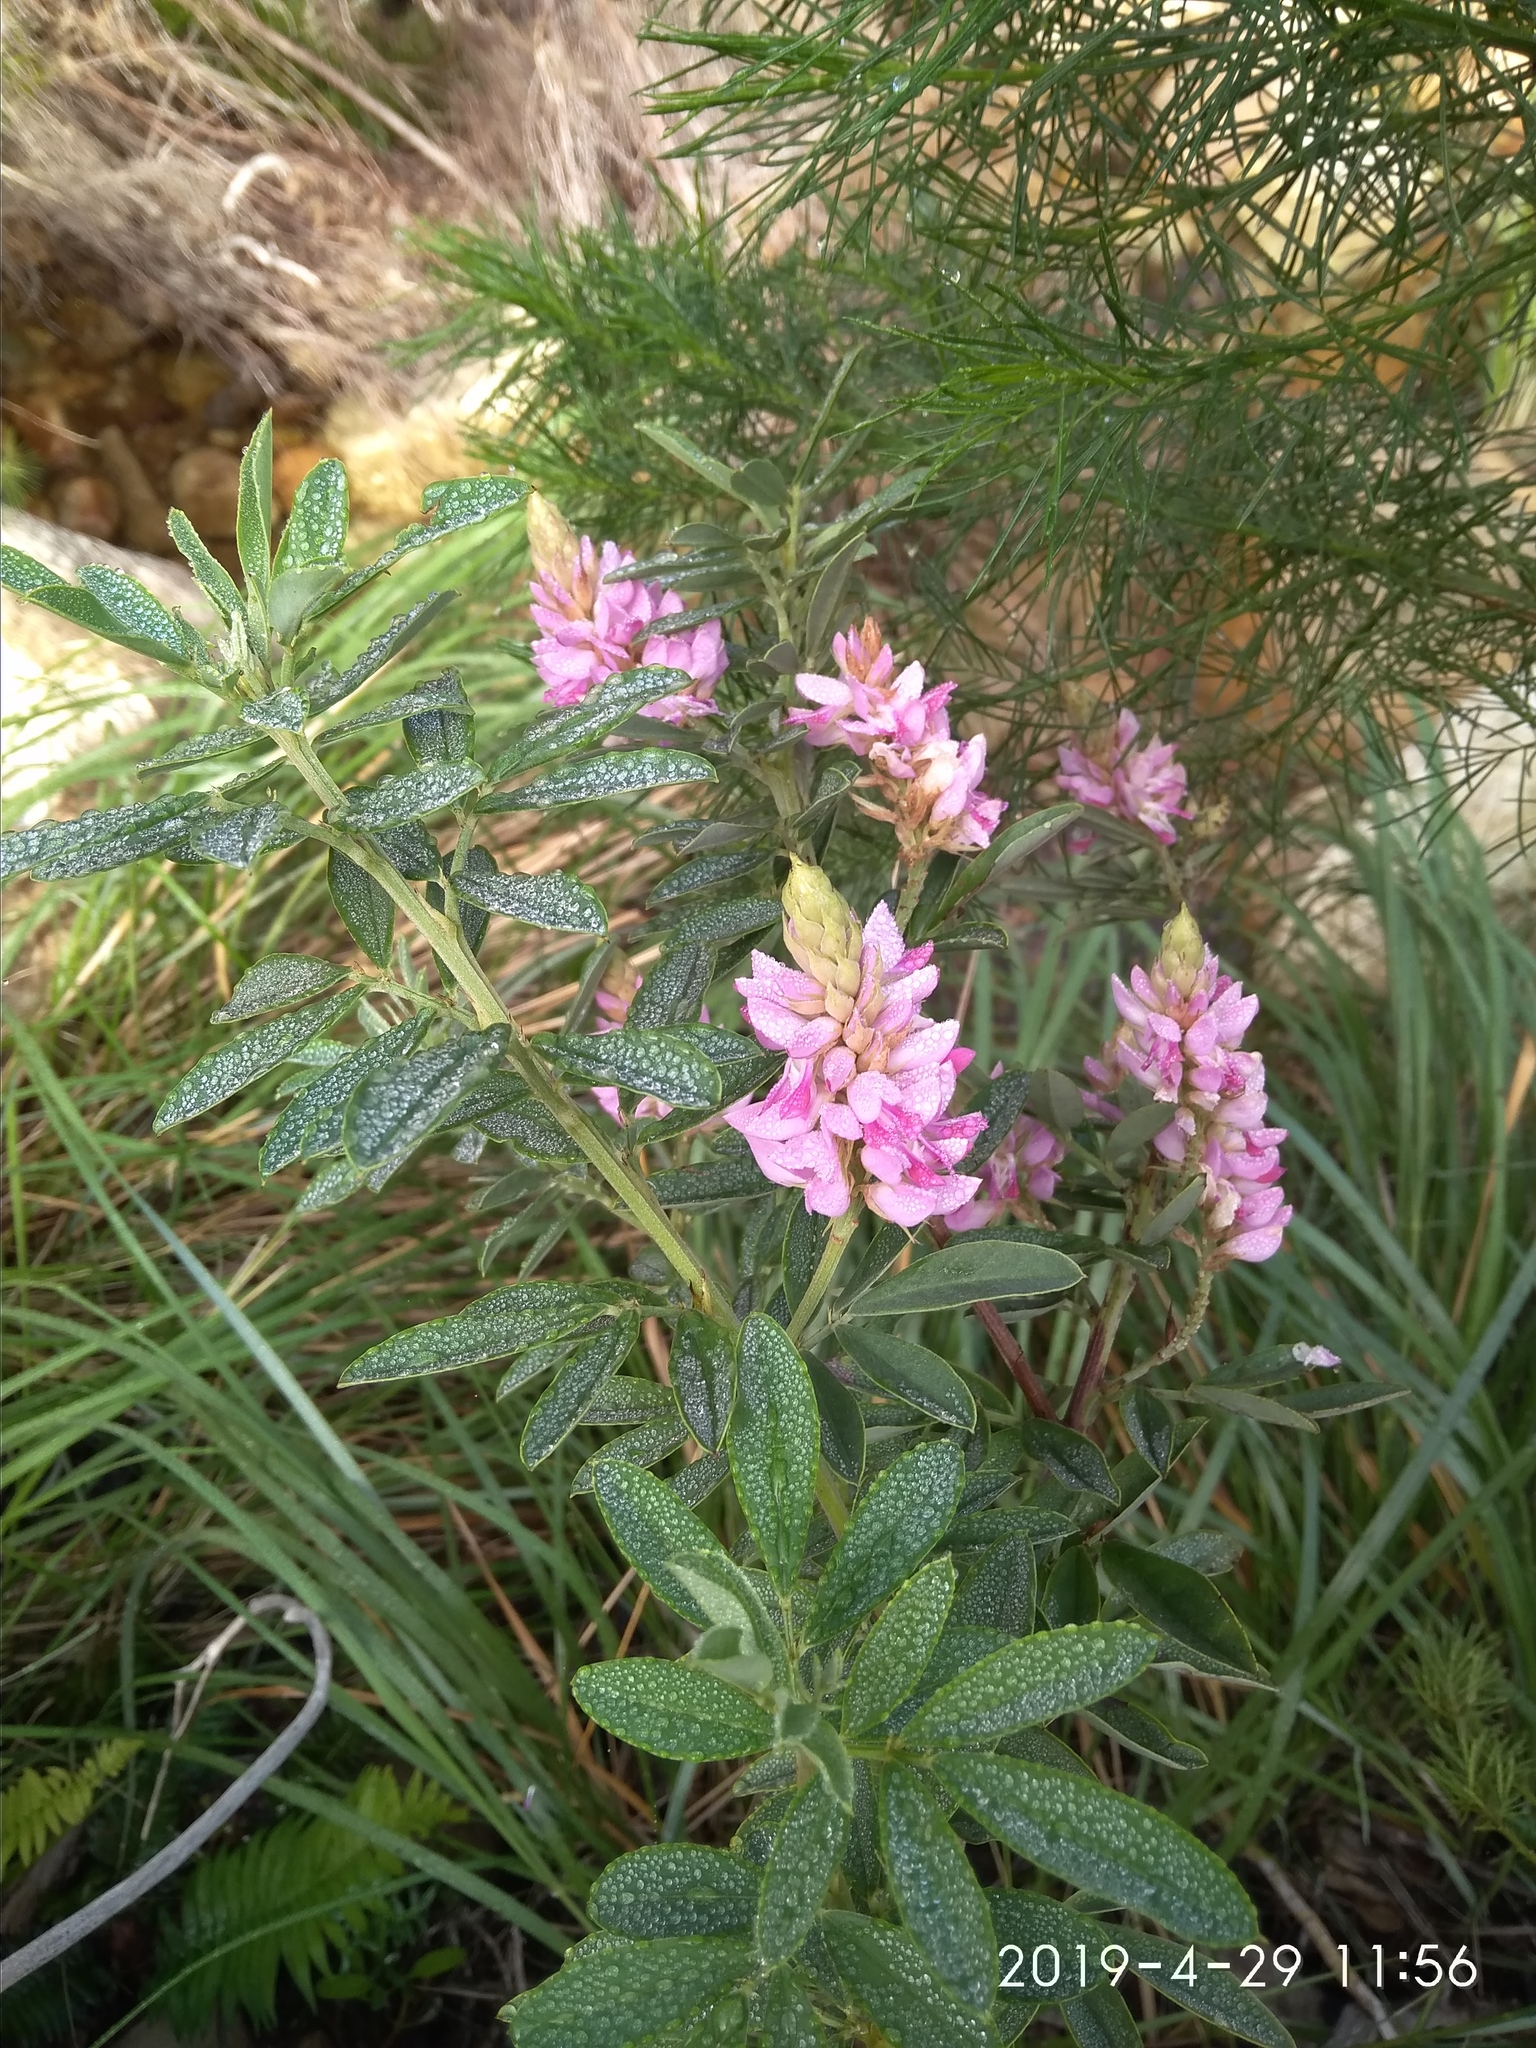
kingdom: Plantae
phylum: Tracheophyta
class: Magnoliopsida
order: Fabales
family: Fabaceae
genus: Indigofera
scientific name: Indigofera cytisoides
